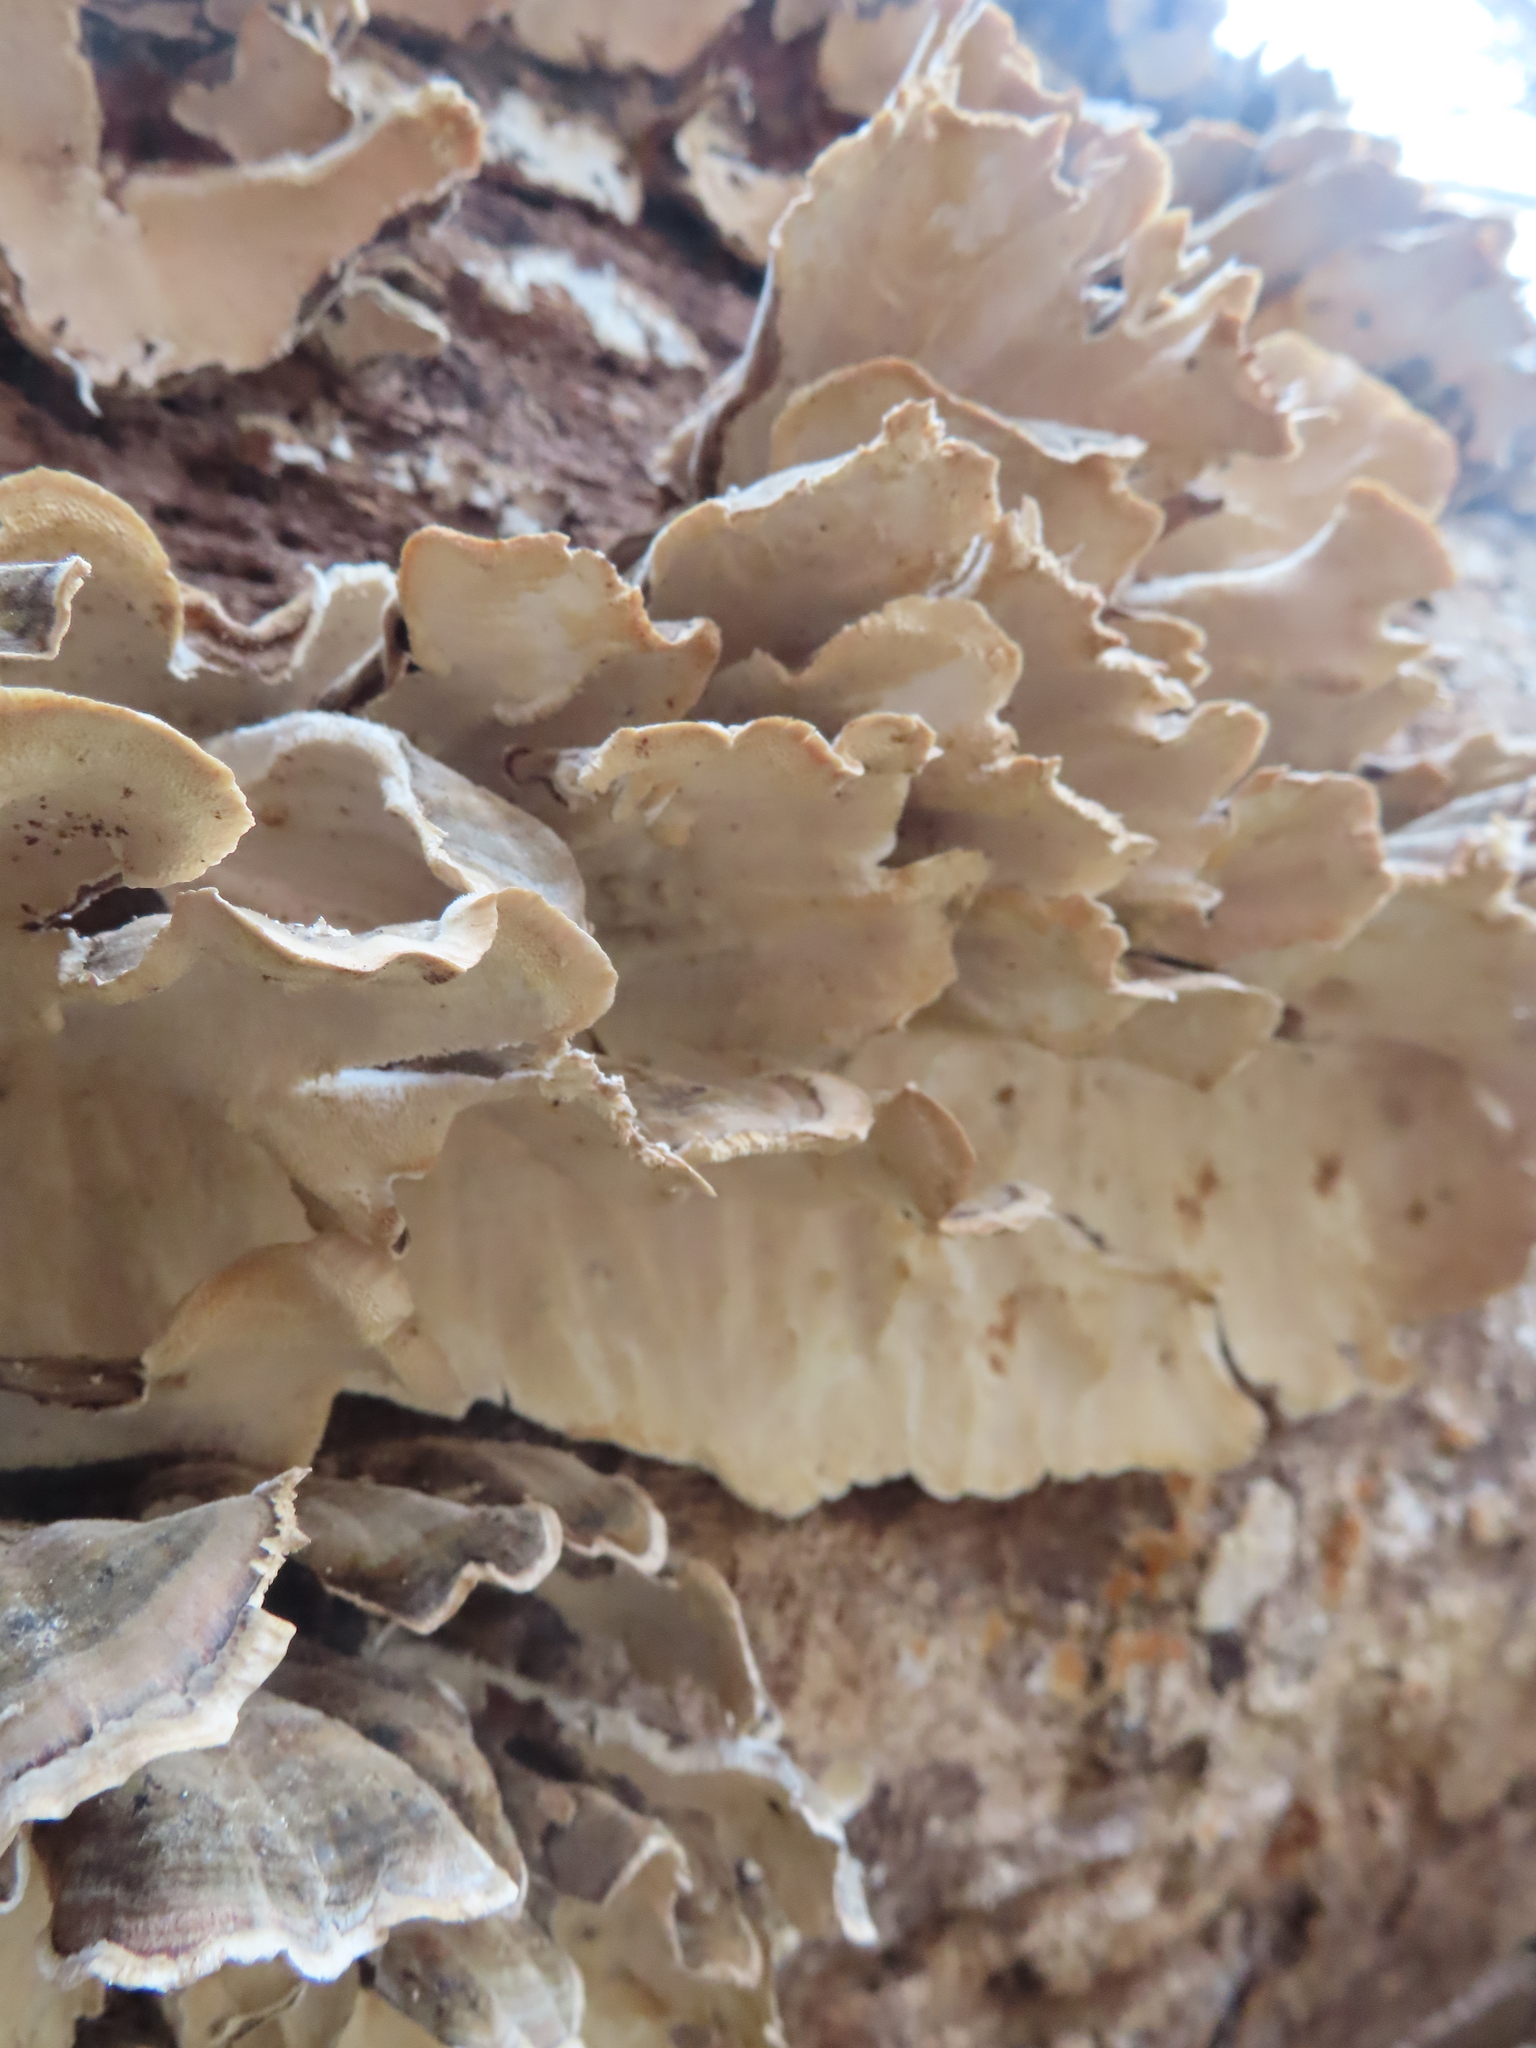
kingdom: Fungi
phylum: Basidiomycota
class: Agaricomycetes
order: Polyporales
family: Polyporaceae
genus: Trametes
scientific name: Trametes versicolor
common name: Turkeytail
